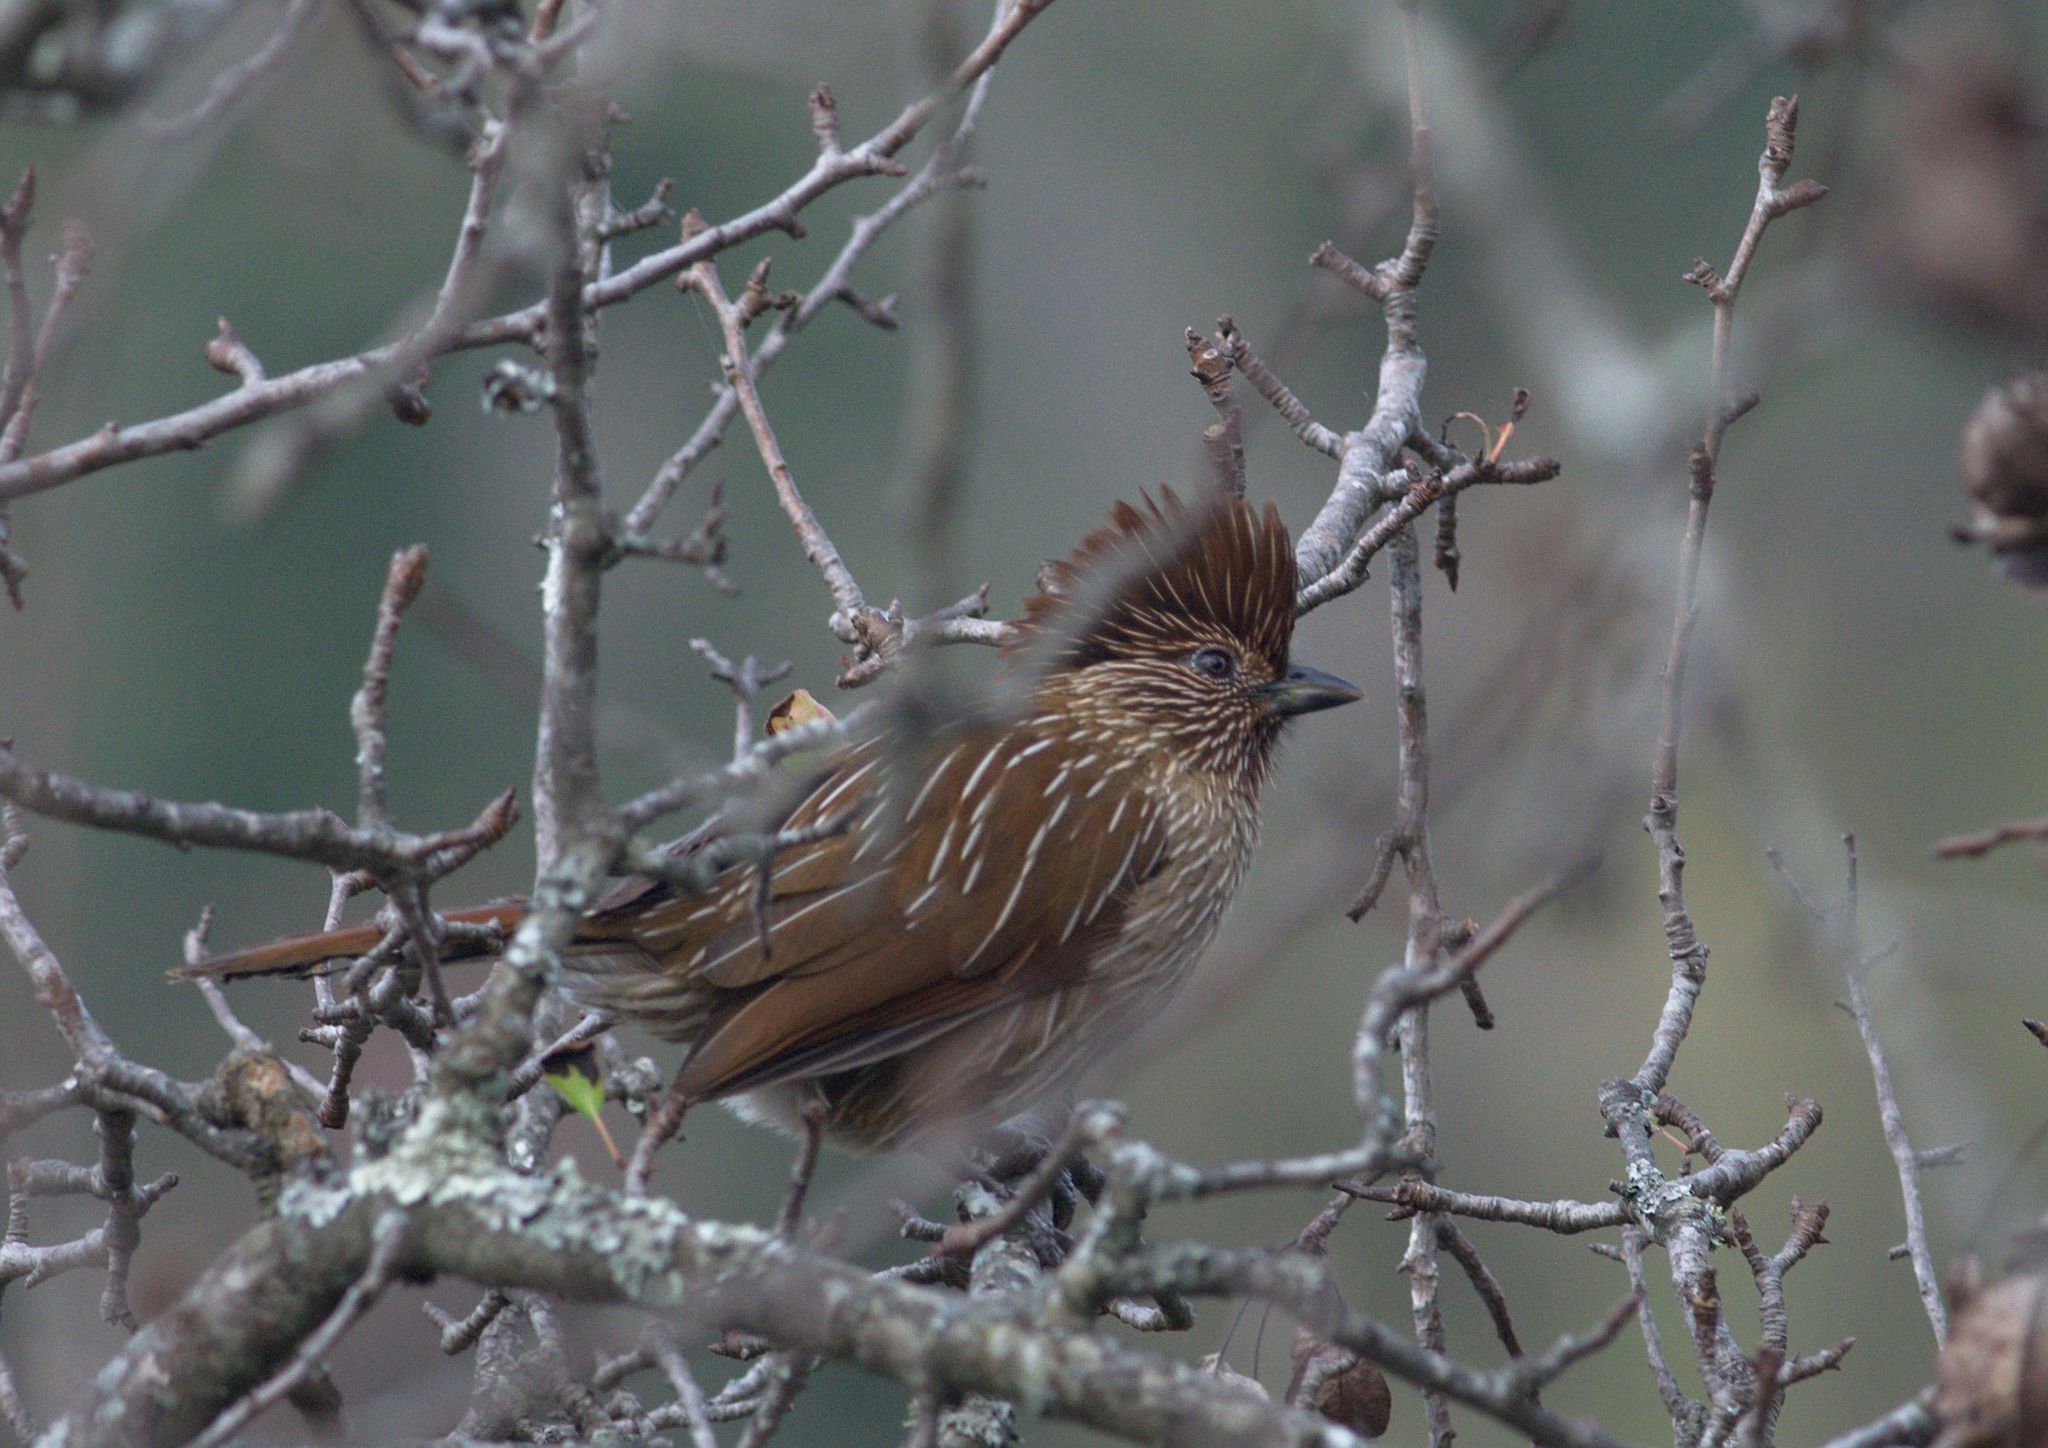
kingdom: Animalia
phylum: Chordata
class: Aves
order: Passeriformes
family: Leiothrichidae
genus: Garrulax
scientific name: Garrulax striatus
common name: Striated laughingthrush
